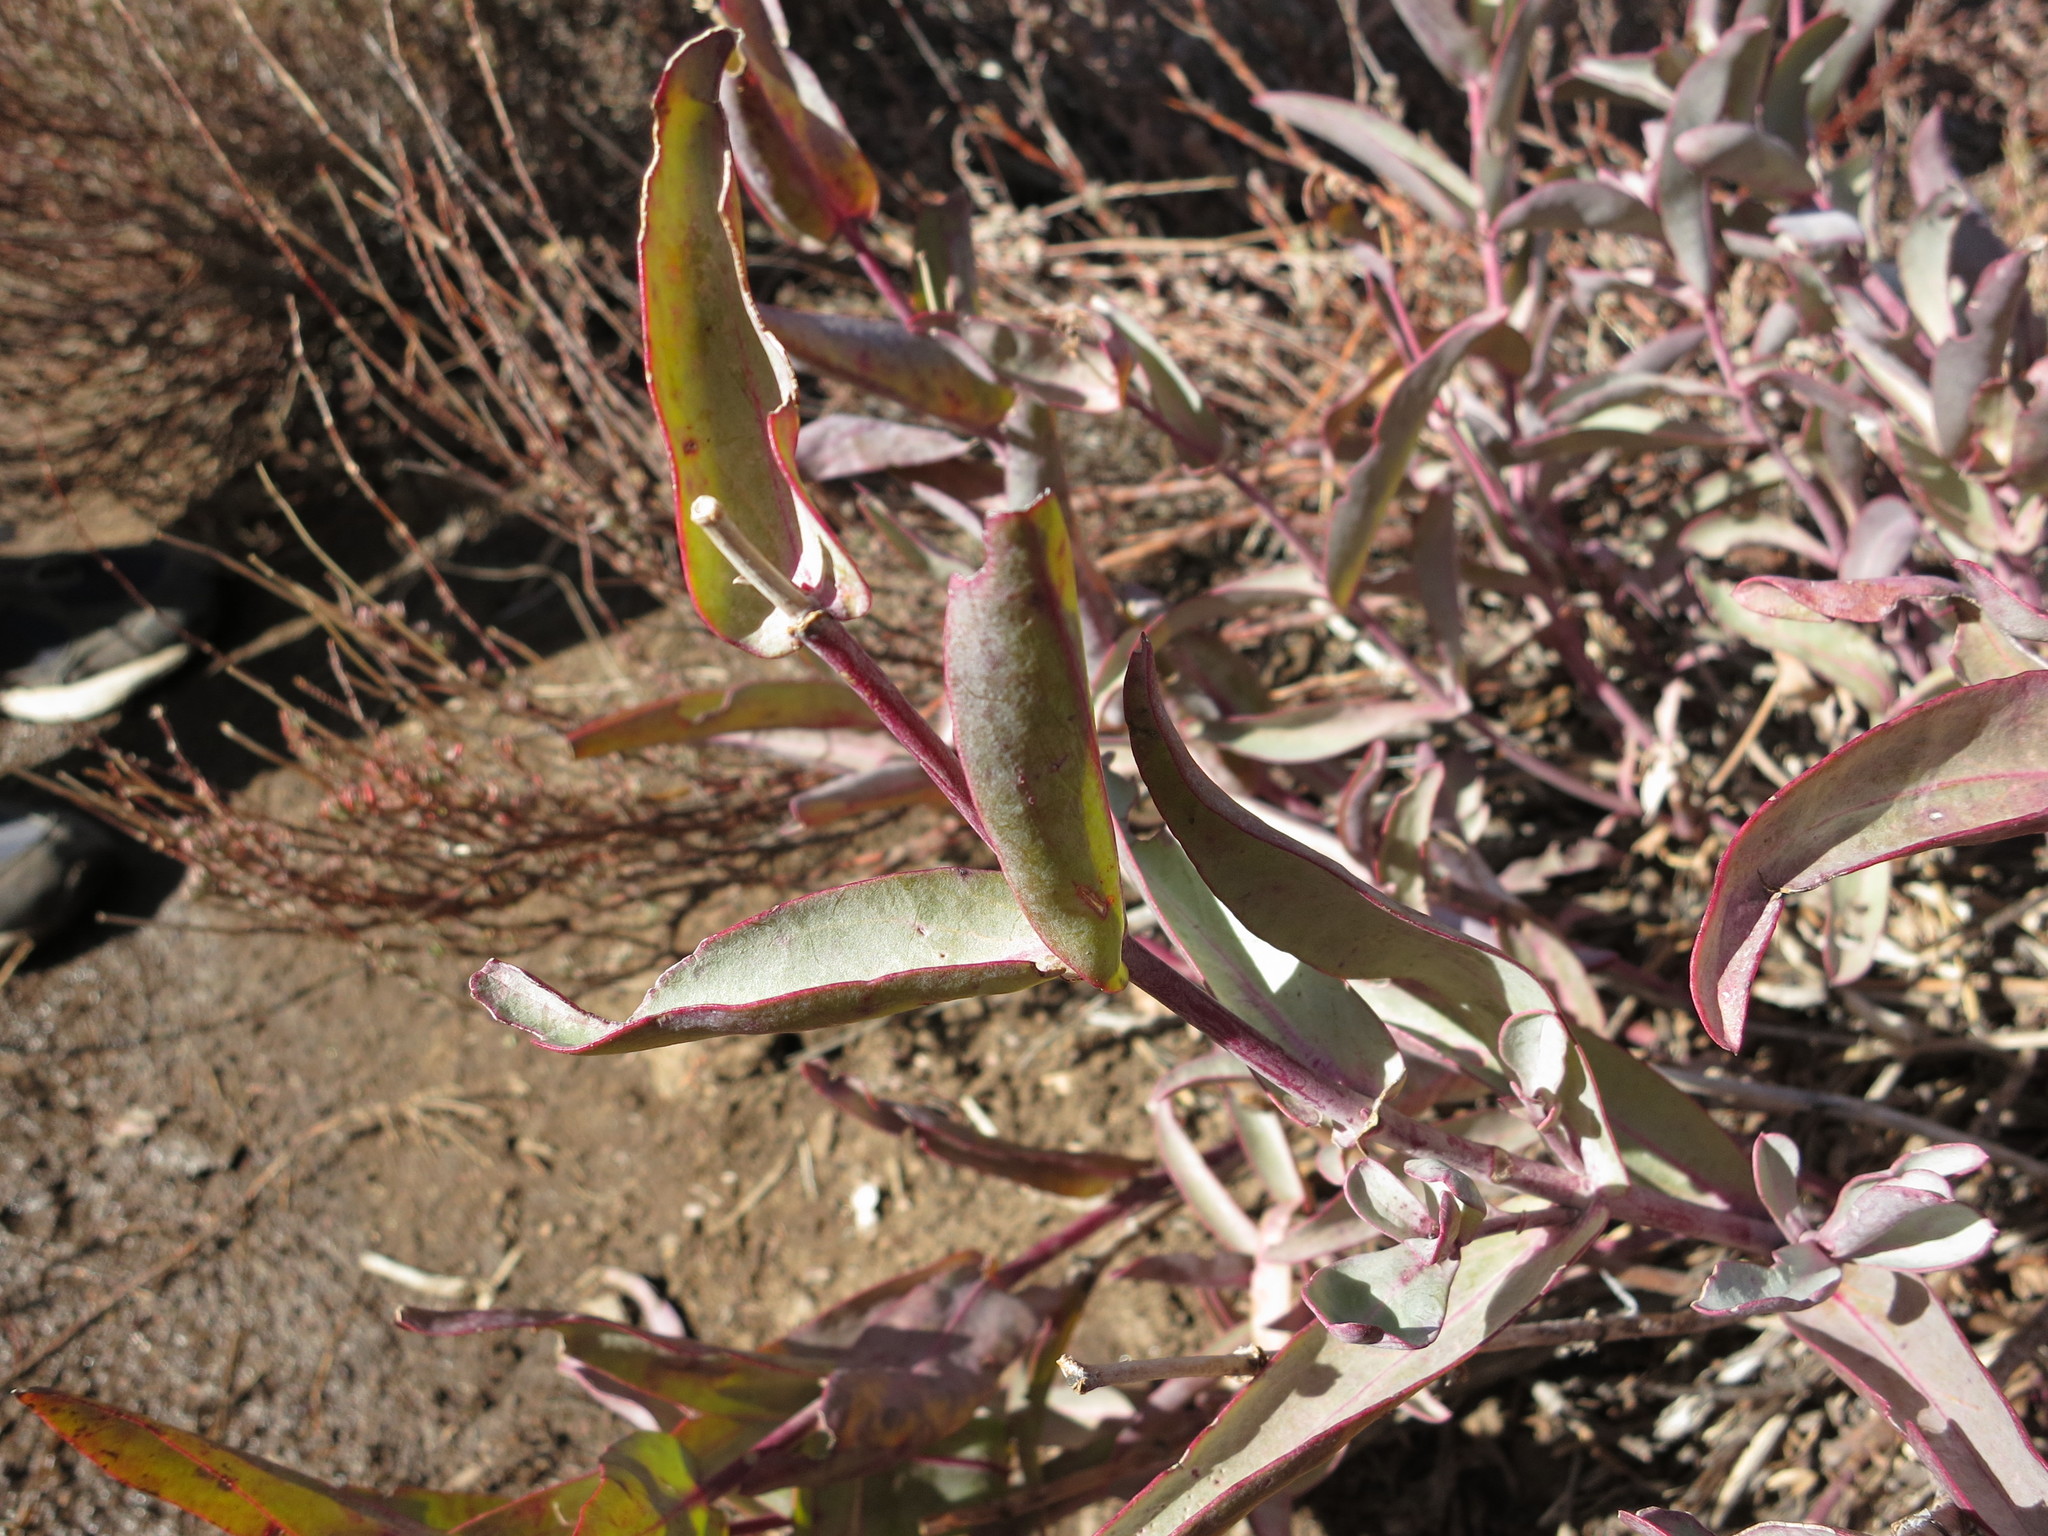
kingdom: Plantae
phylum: Tracheophyta
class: Magnoliopsida
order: Lamiales
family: Plantaginaceae
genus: Penstemon
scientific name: Penstemon centranthifolius
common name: Scarlet bugler
